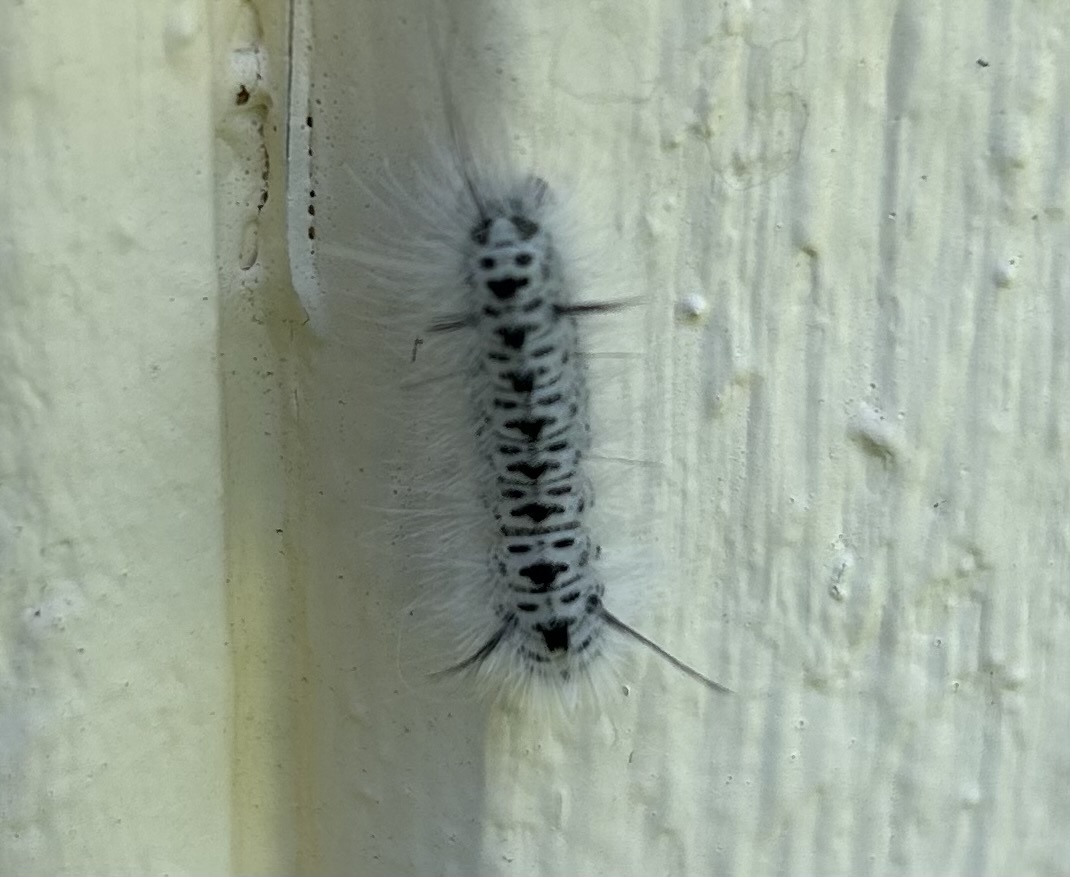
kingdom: Animalia
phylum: Arthropoda
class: Insecta
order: Lepidoptera
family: Erebidae
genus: Lophocampa
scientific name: Lophocampa caryae
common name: Hickory tussock moth
